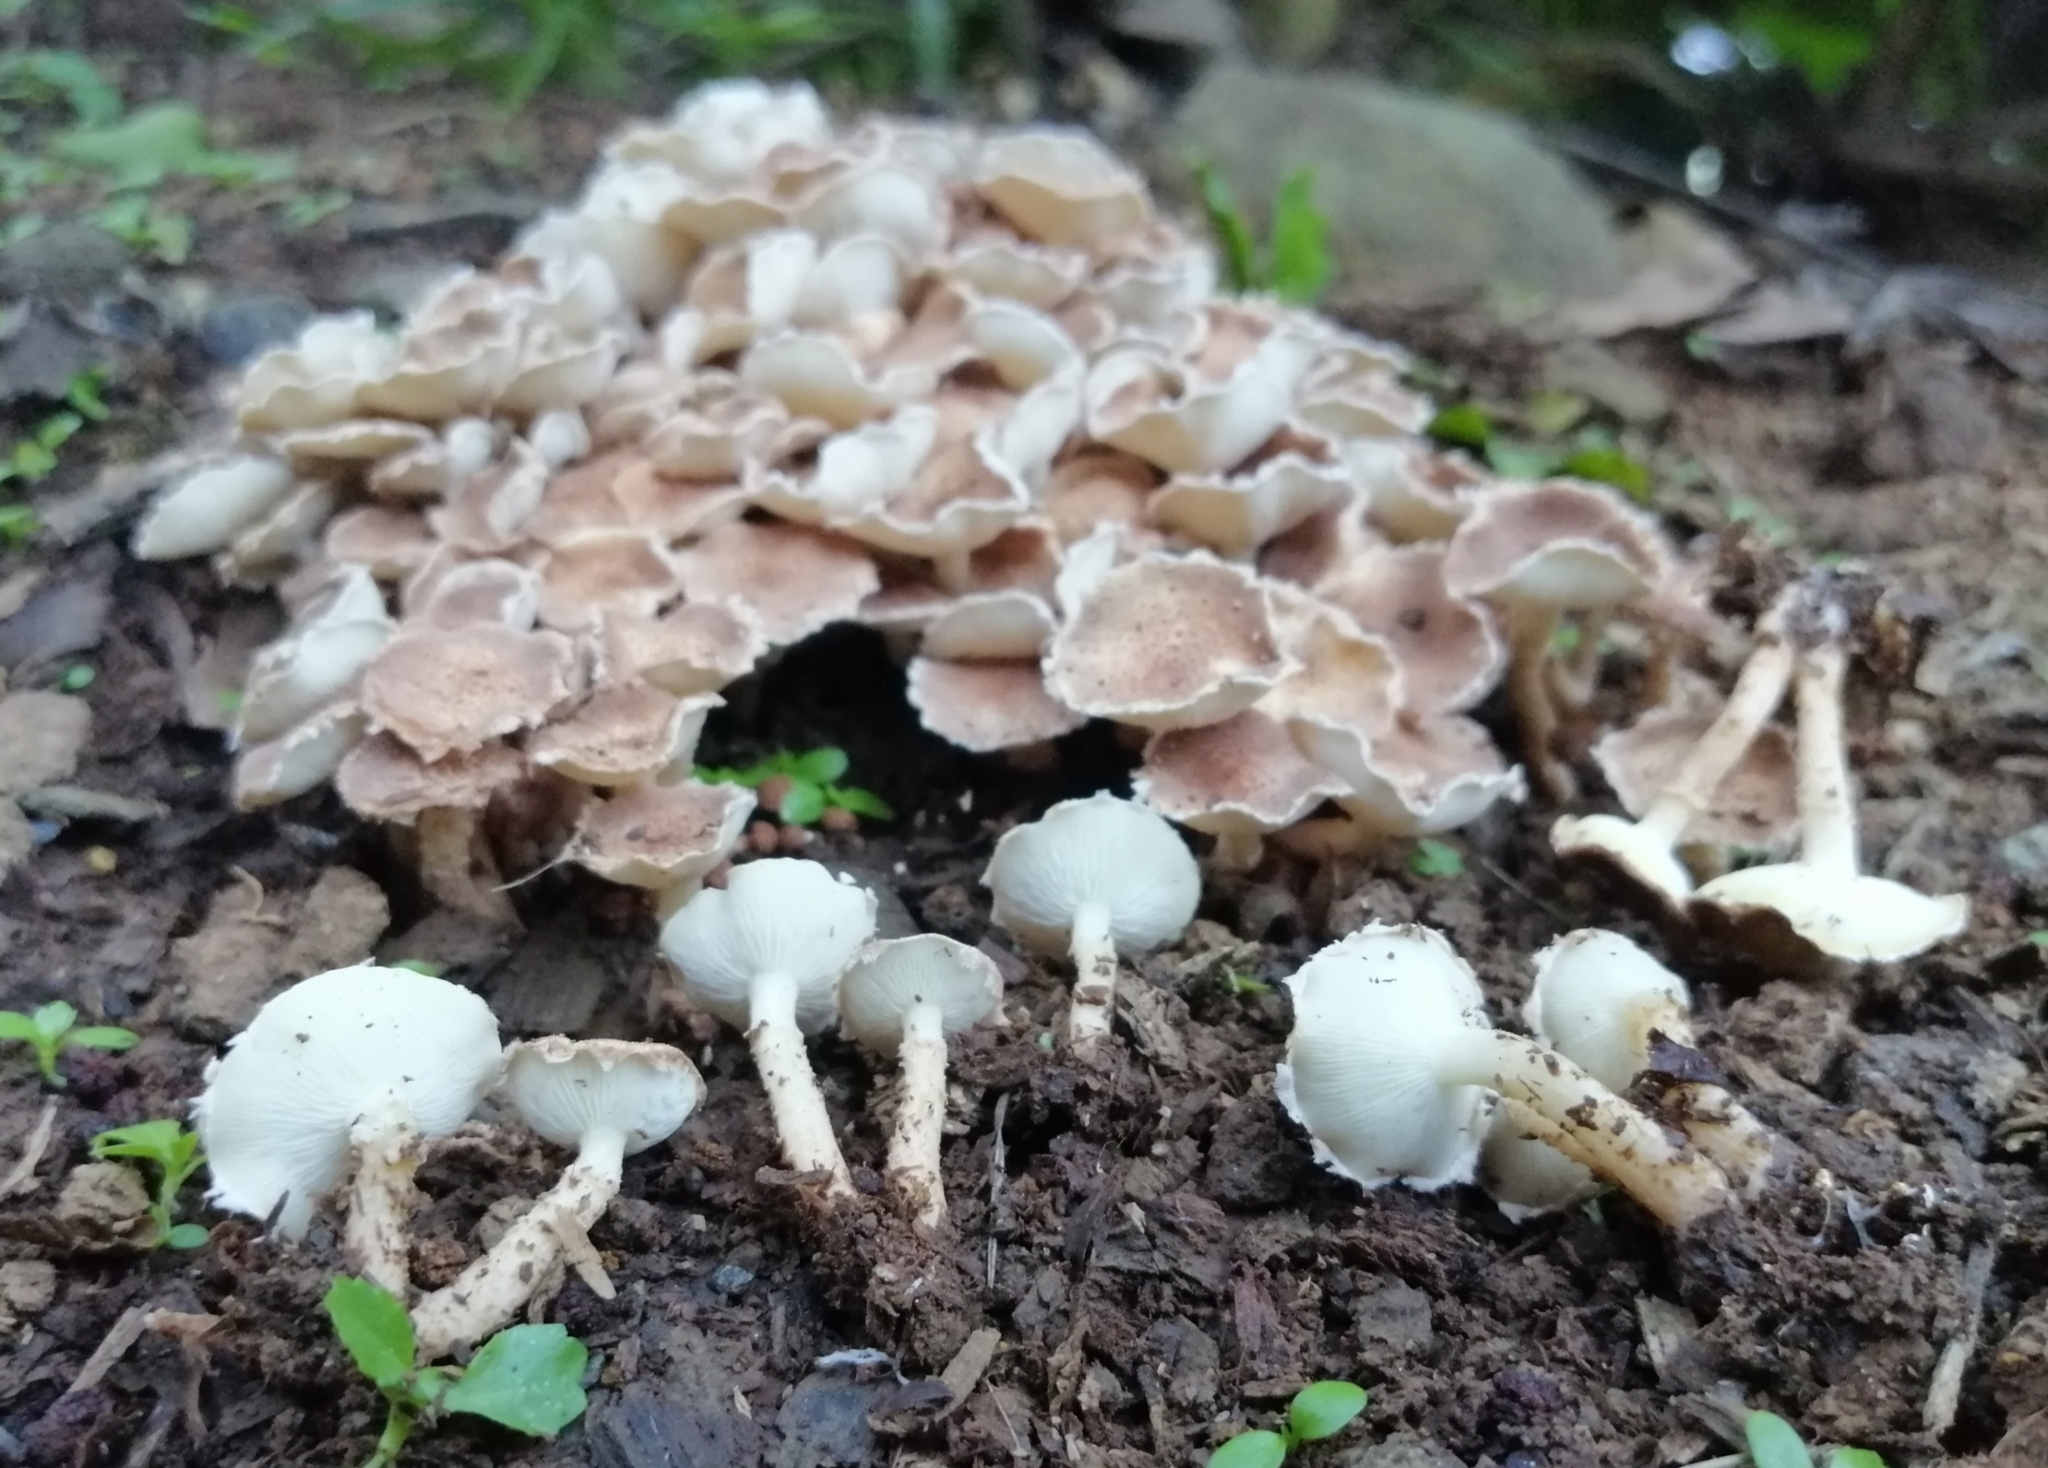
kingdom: Fungi
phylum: Basidiomycota
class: Agaricomycetes
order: Agaricales
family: Agaricaceae
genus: Ripartitella
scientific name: Ripartitella brasiliensis
